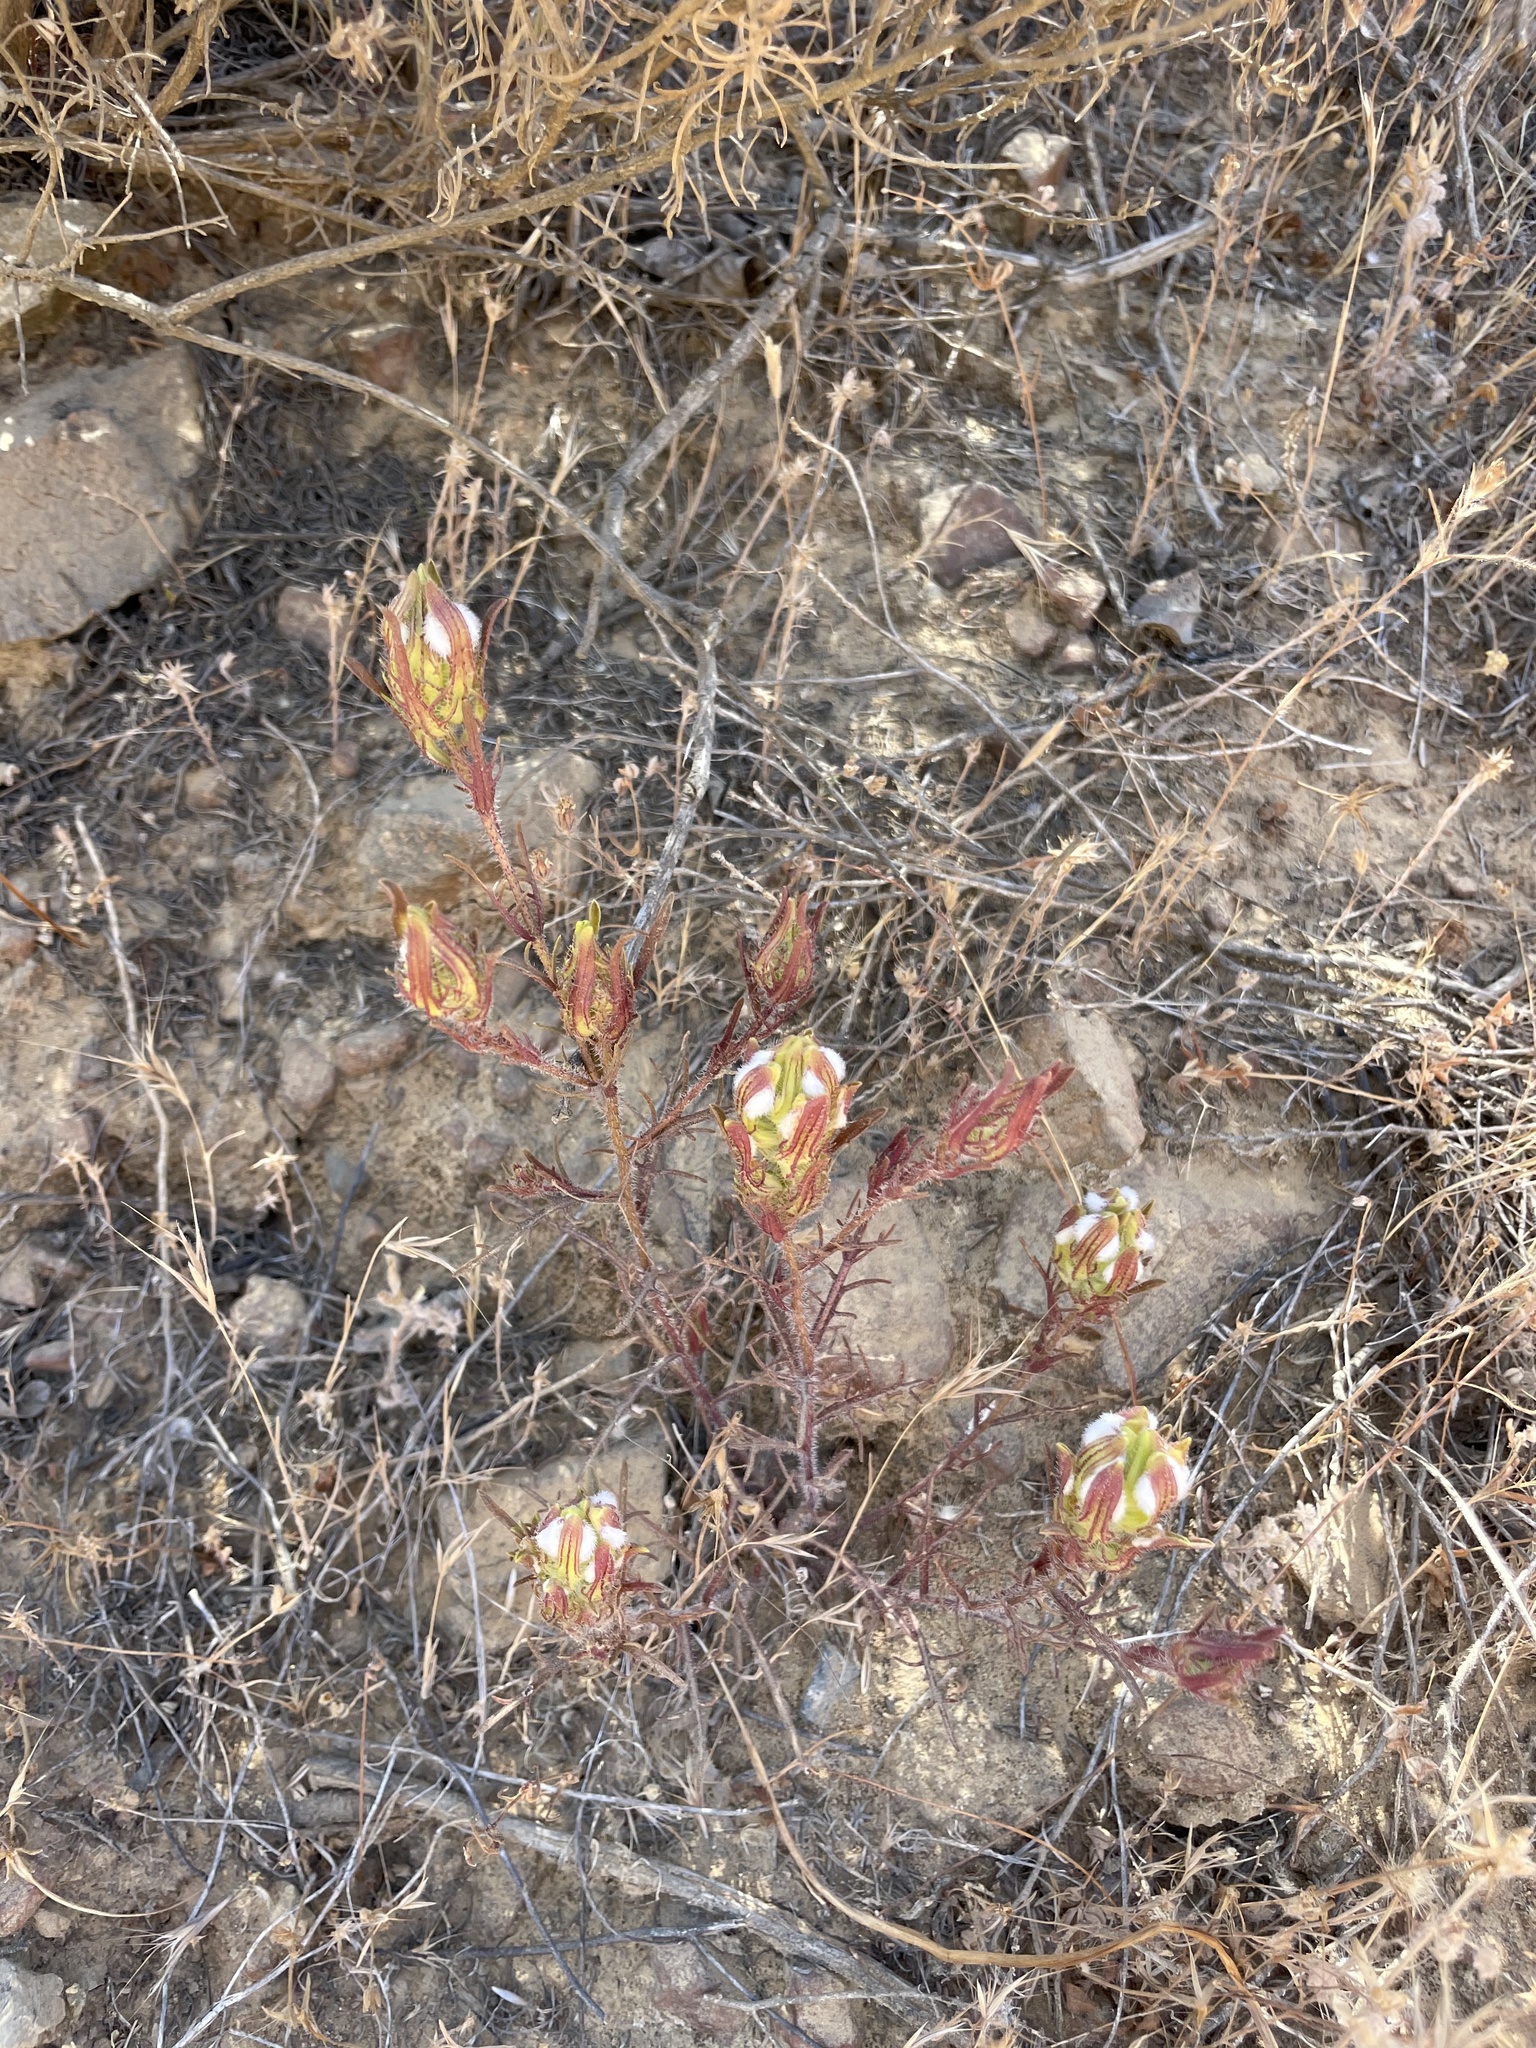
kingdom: Plantae
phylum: Tracheophyta
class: Magnoliopsida
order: Lamiales
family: Orobanchaceae
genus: Dicranostegia
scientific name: Dicranostegia orcuttiana
